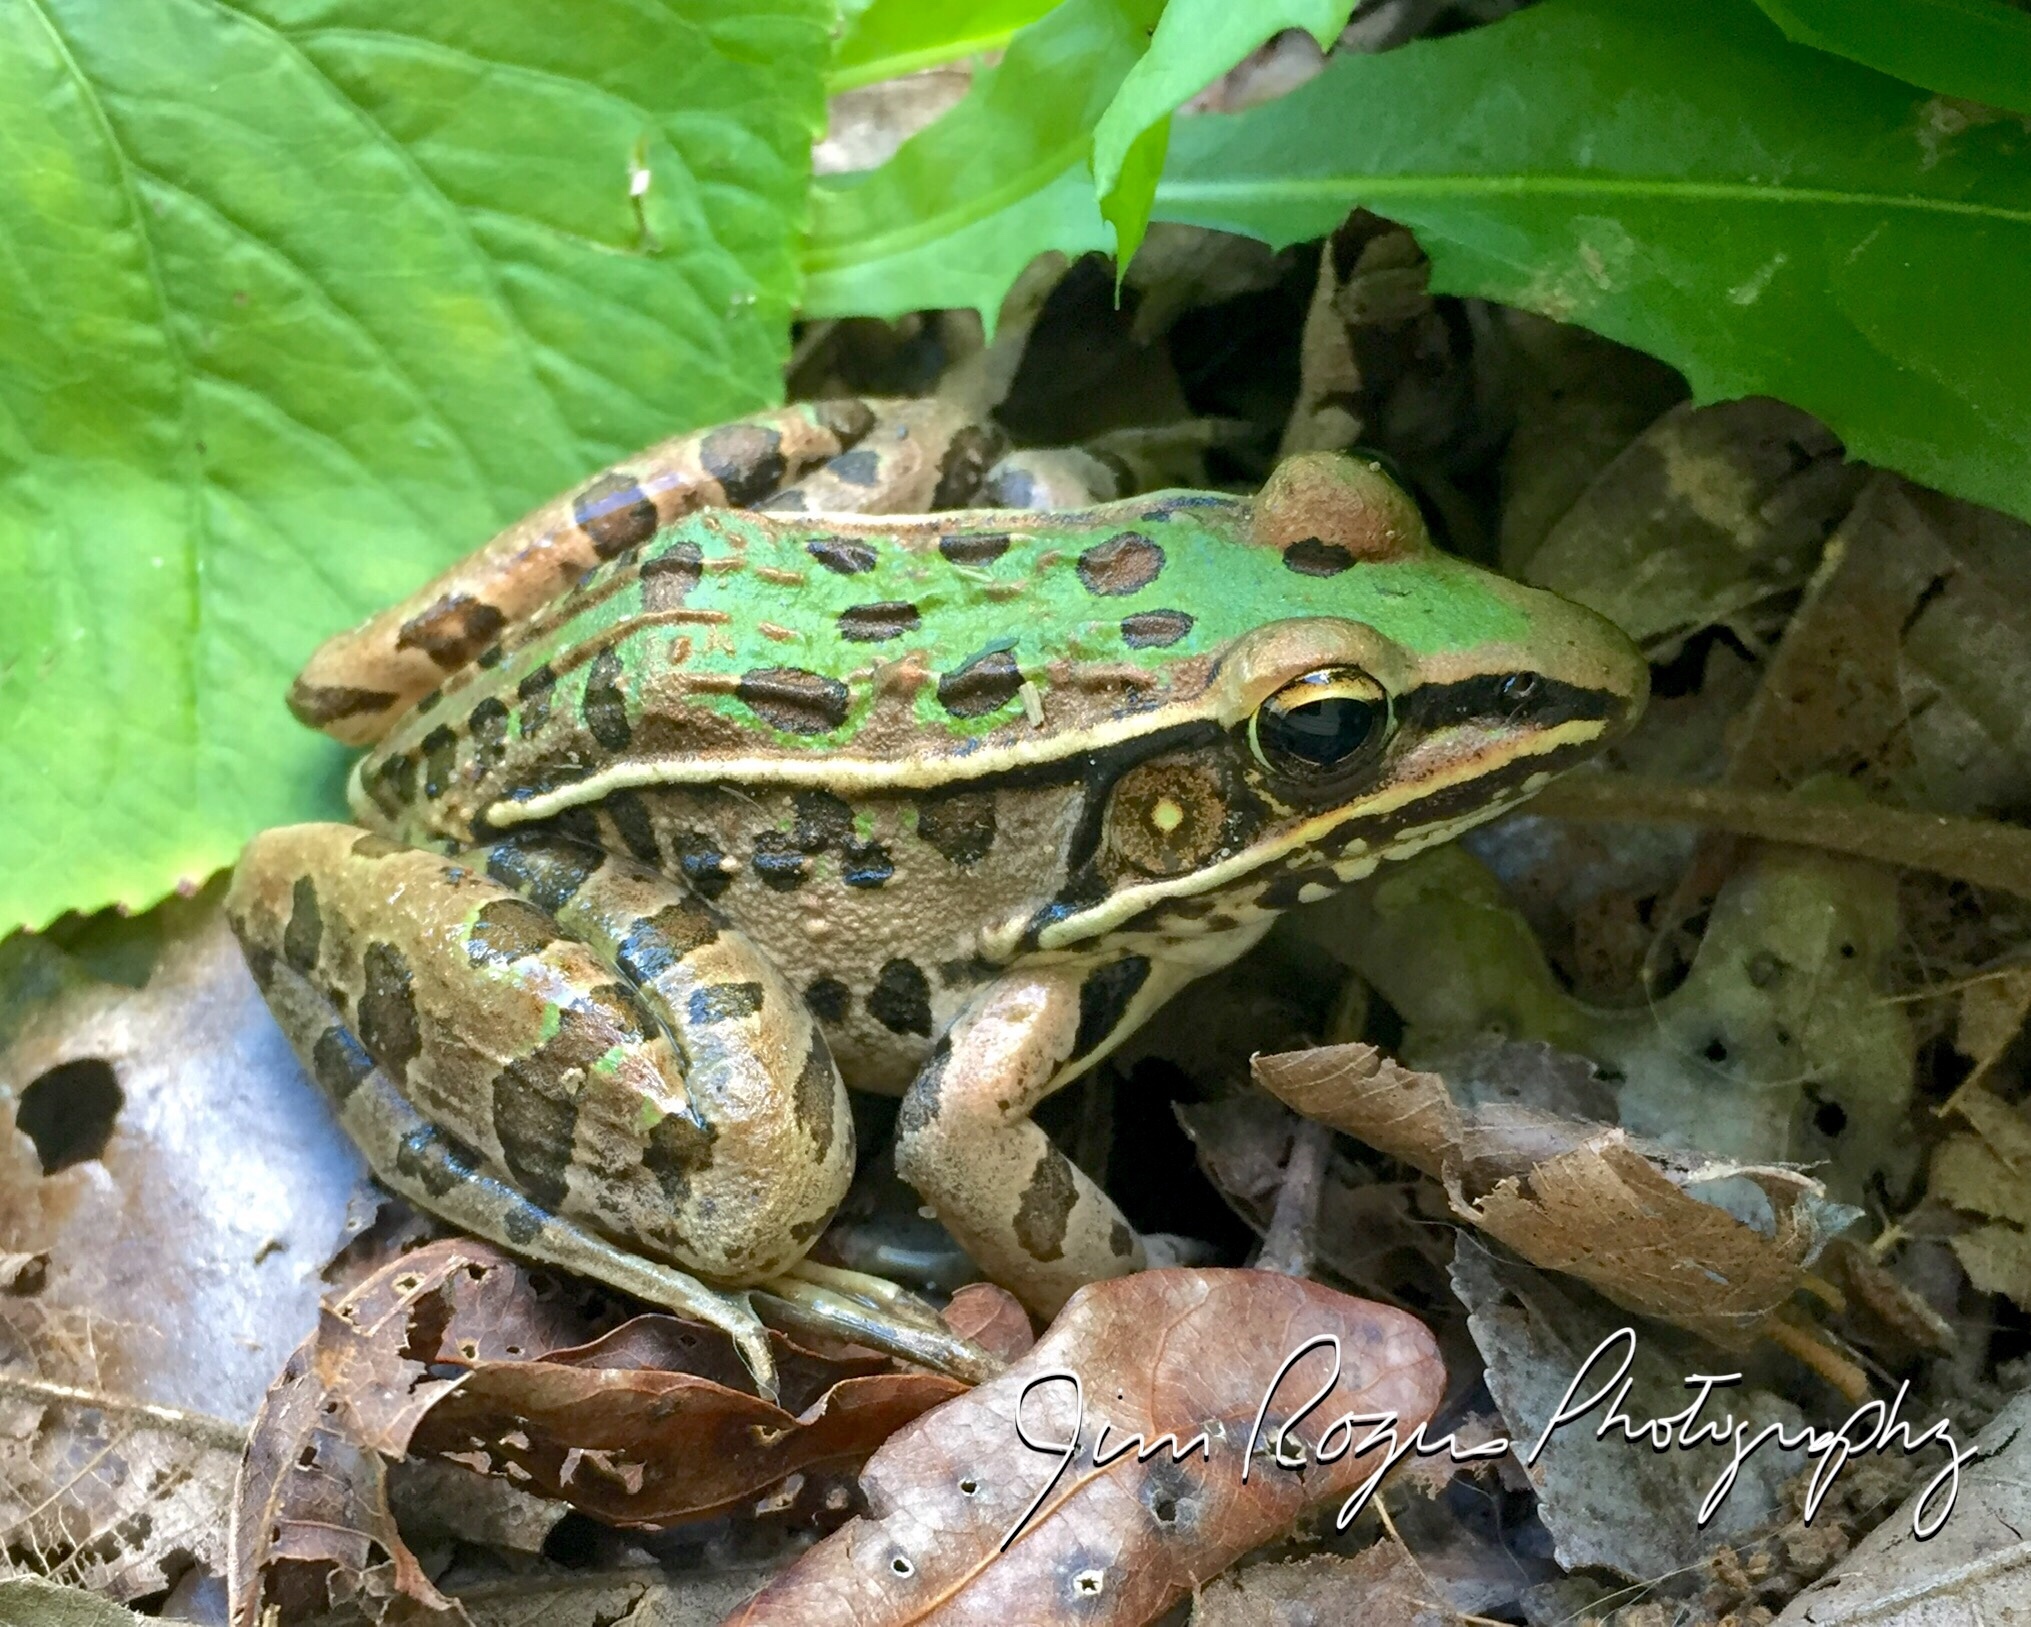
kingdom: Animalia
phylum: Chordata
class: Amphibia
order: Anura
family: Ranidae
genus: Lithobates
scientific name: Lithobates sphenocephalus
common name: Southern leopard frog
